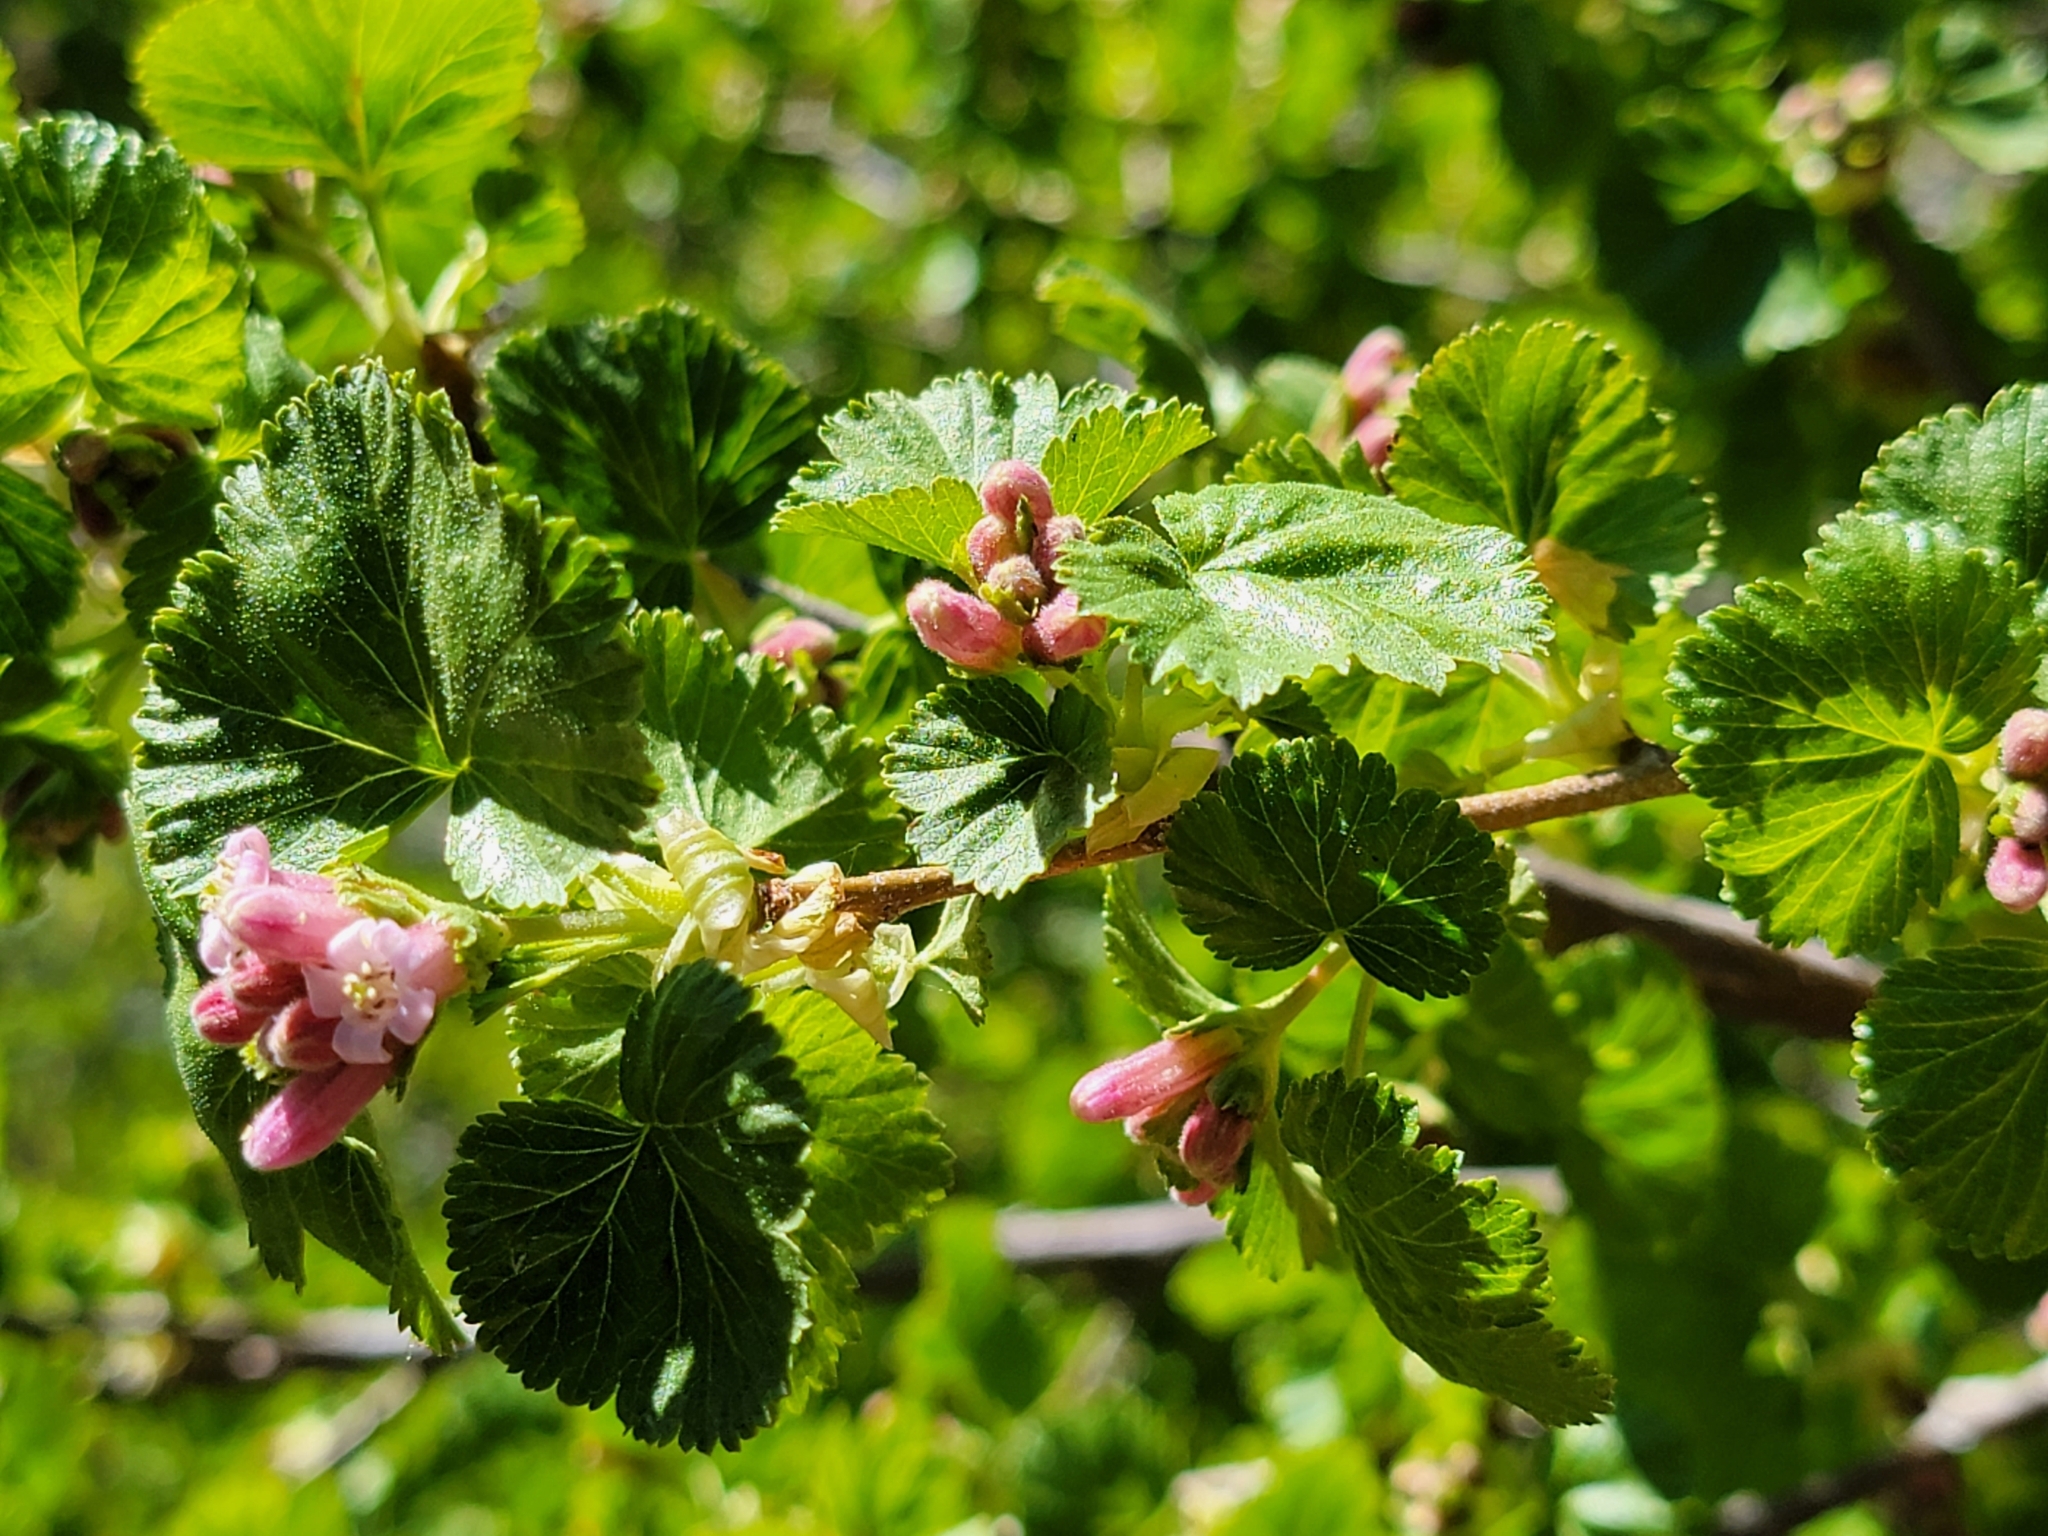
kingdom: Plantae
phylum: Tracheophyta
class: Magnoliopsida
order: Saxifragales
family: Grossulariaceae
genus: Ribes
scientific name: Ribes cereum
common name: Wax currant
